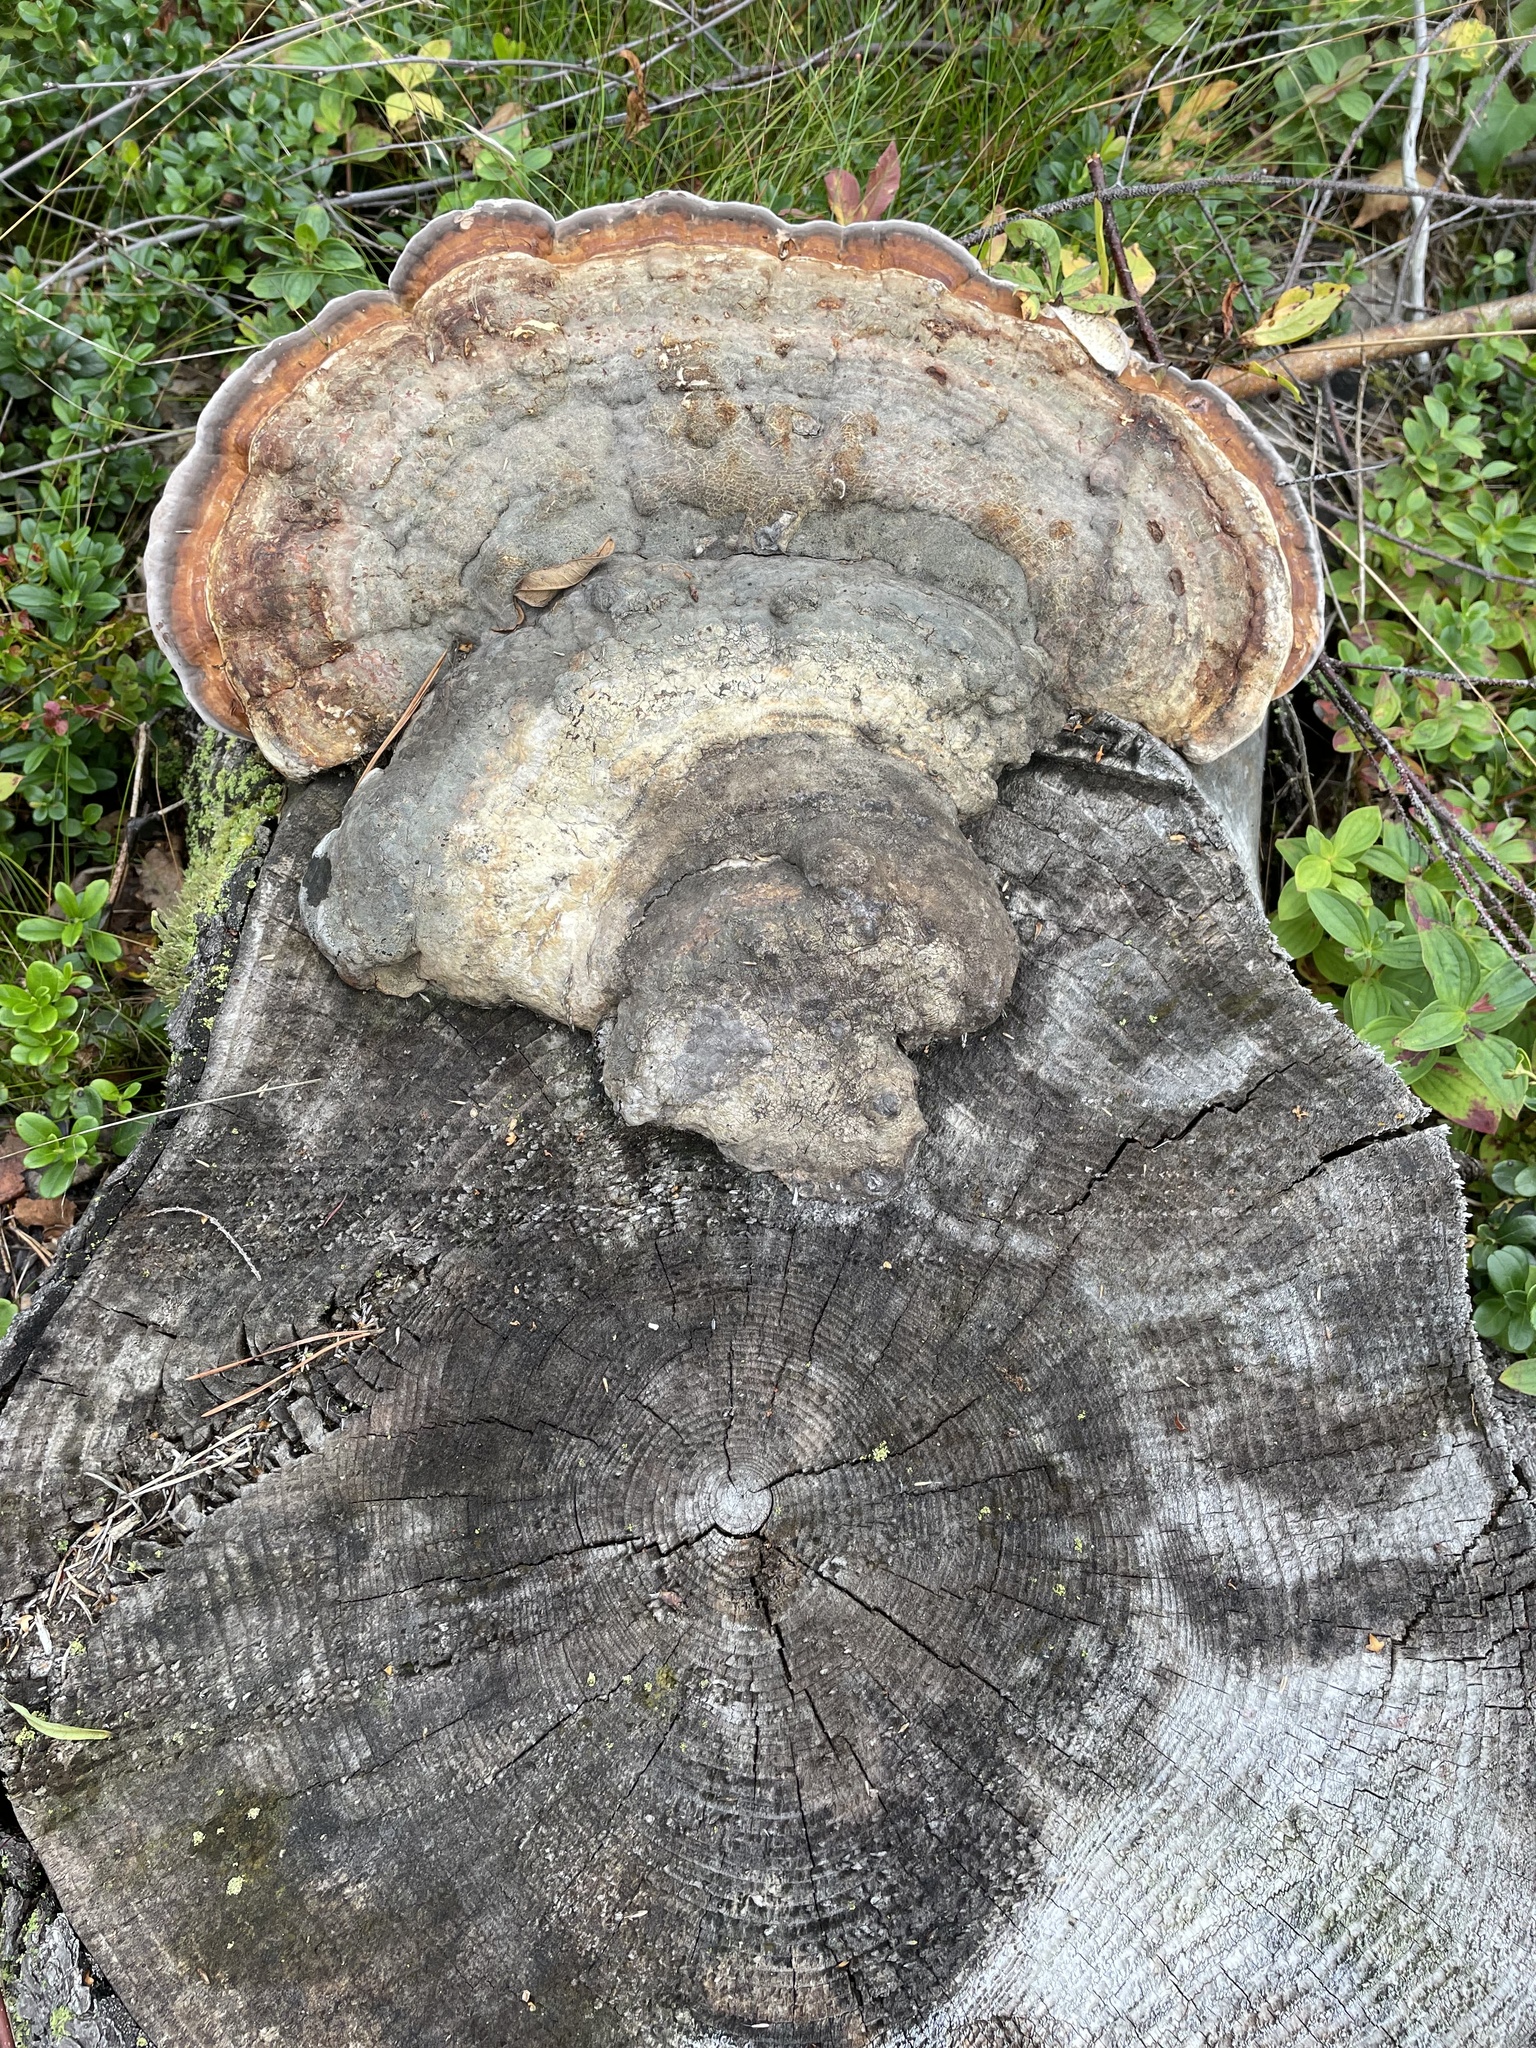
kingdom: Fungi
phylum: Basidiomycota
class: Agaricomycetes
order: Polyporales
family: Fomitopsidaceae
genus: Fomitopsis
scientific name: Fomitopsis pinicola
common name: Red-belted bracket
